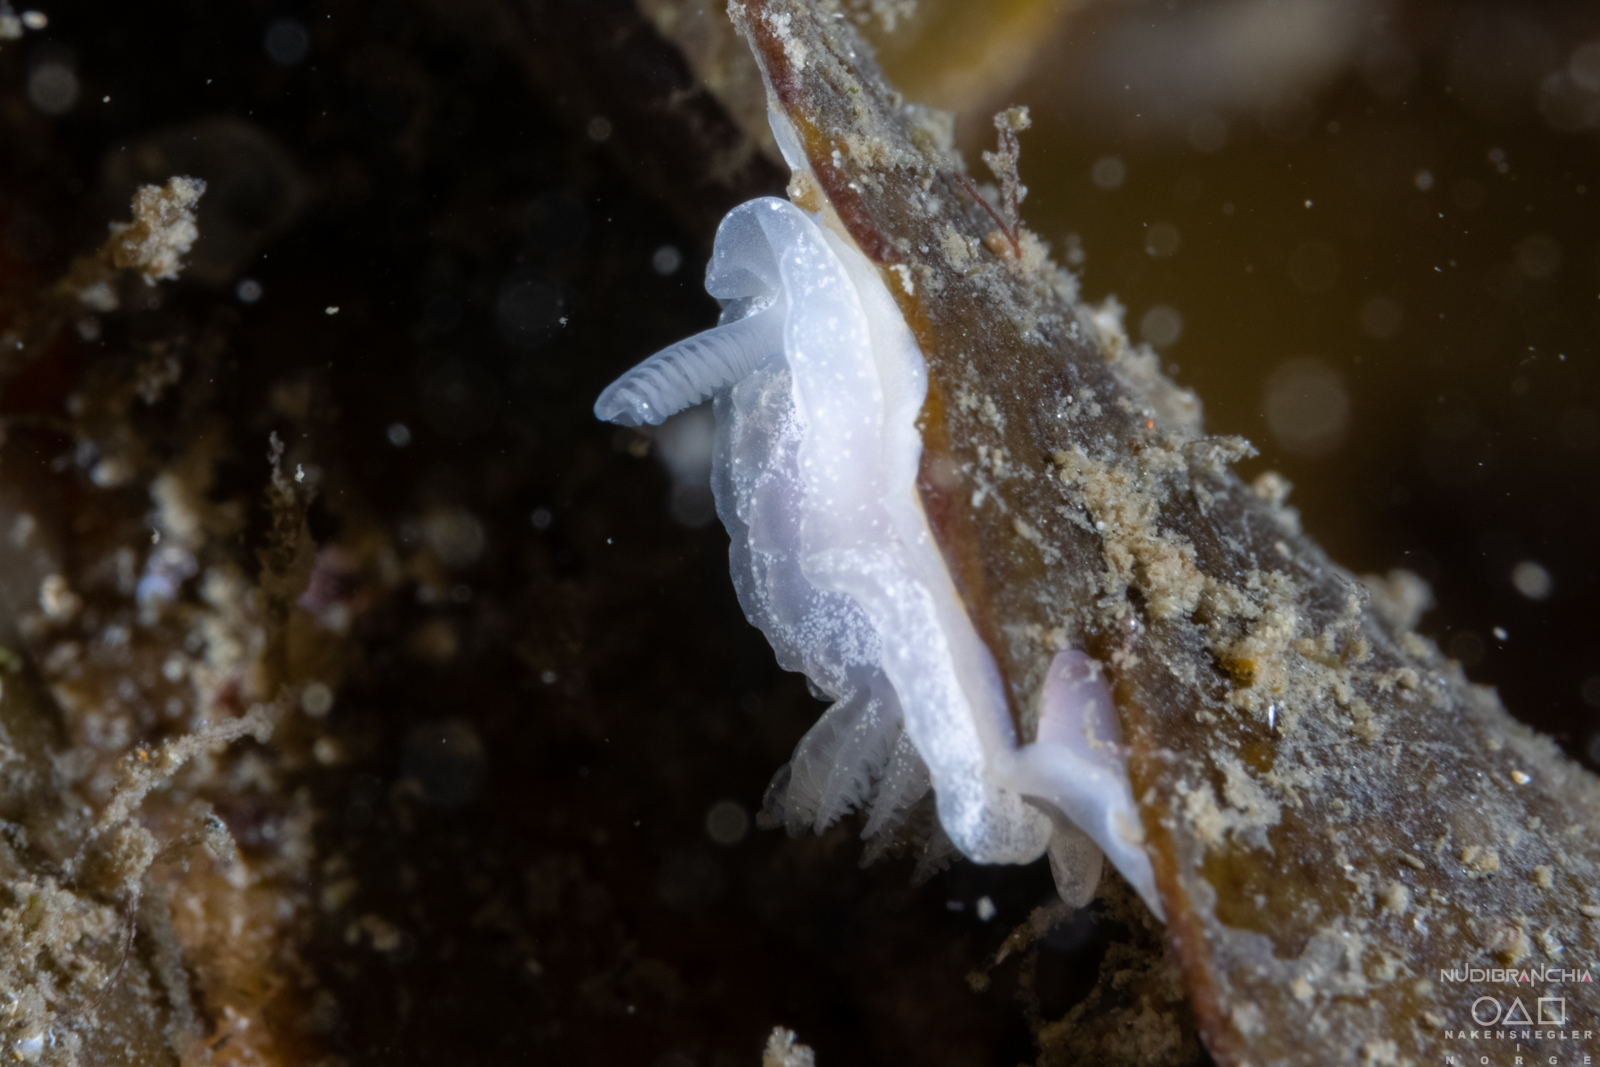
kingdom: Animalia
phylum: Mollusca
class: Gastropoda
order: Nudibranchia
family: Goniodorididae
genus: Okenia
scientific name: Okenia
